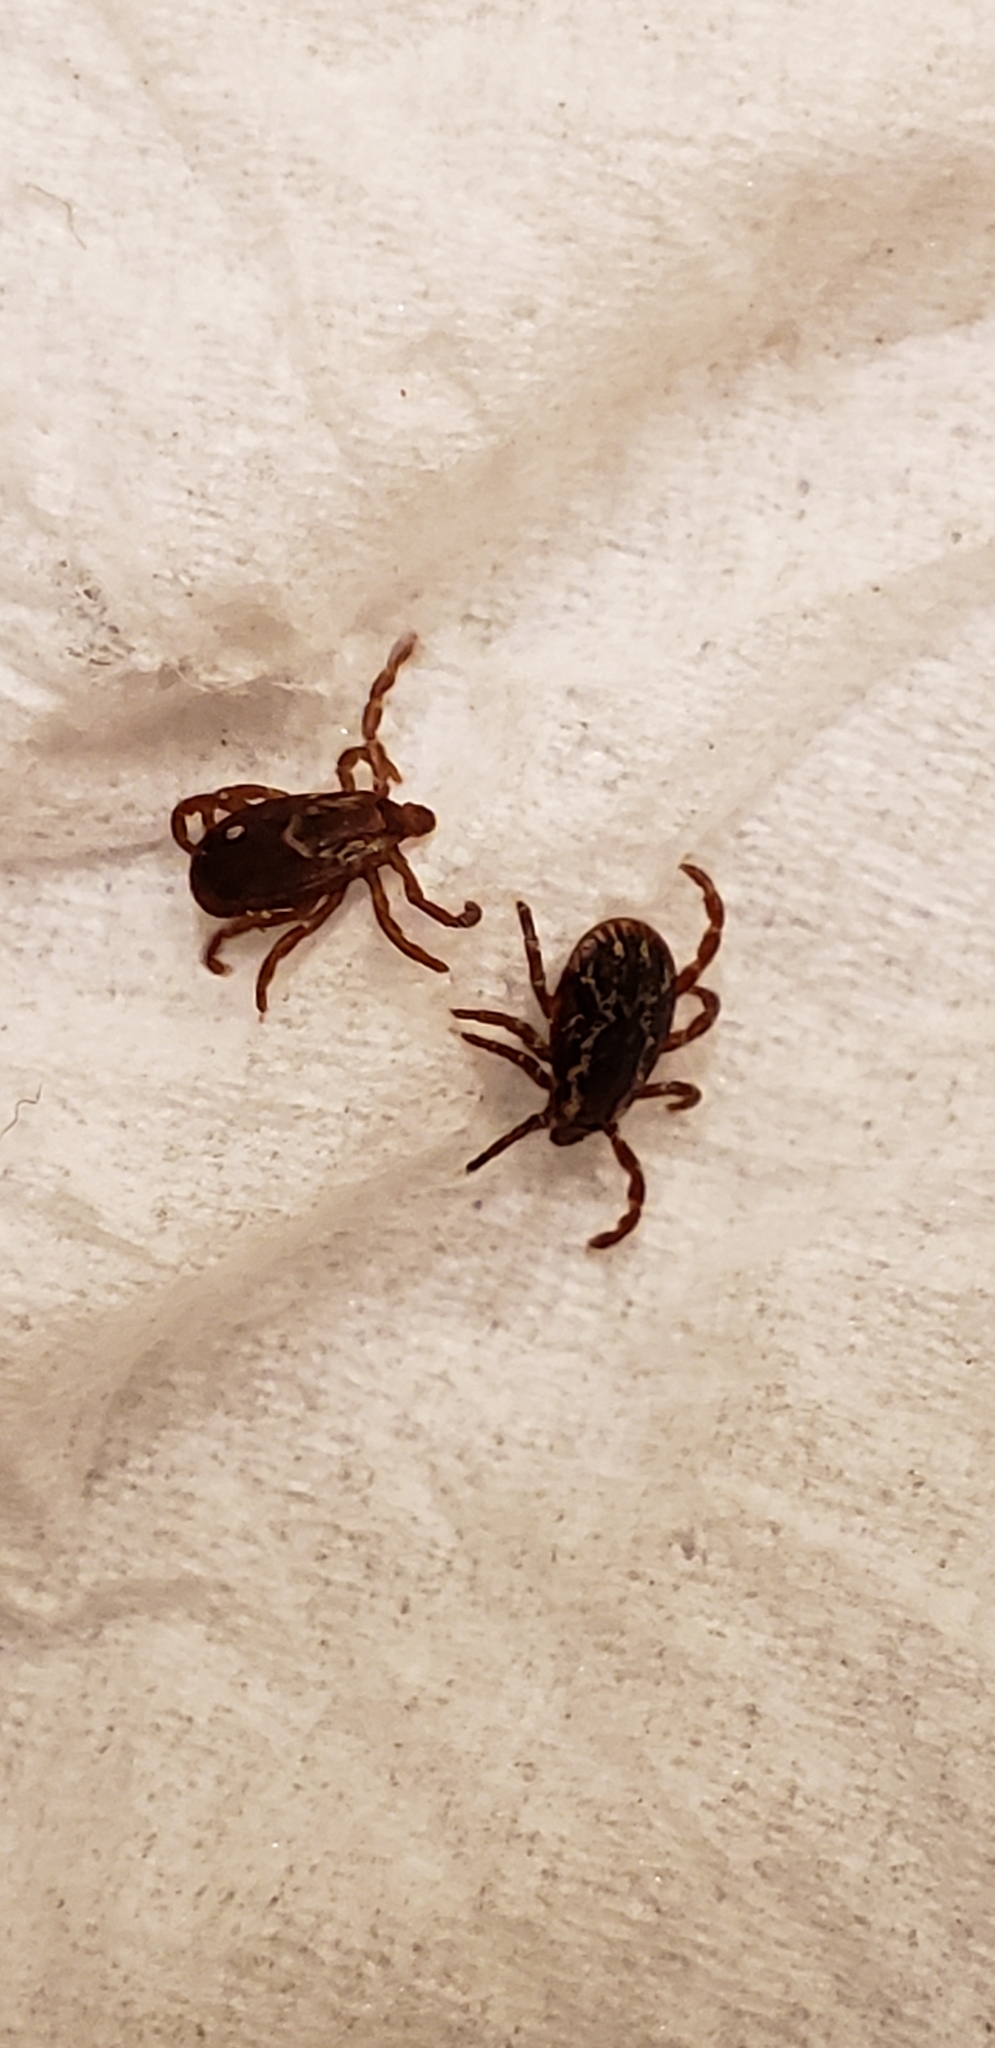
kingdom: Animalia
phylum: Arthropoda
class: Arachnida
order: Ixodida
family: Ixodidae
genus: Dermacentor
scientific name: Dermacentor variabilis
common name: American dog tick
